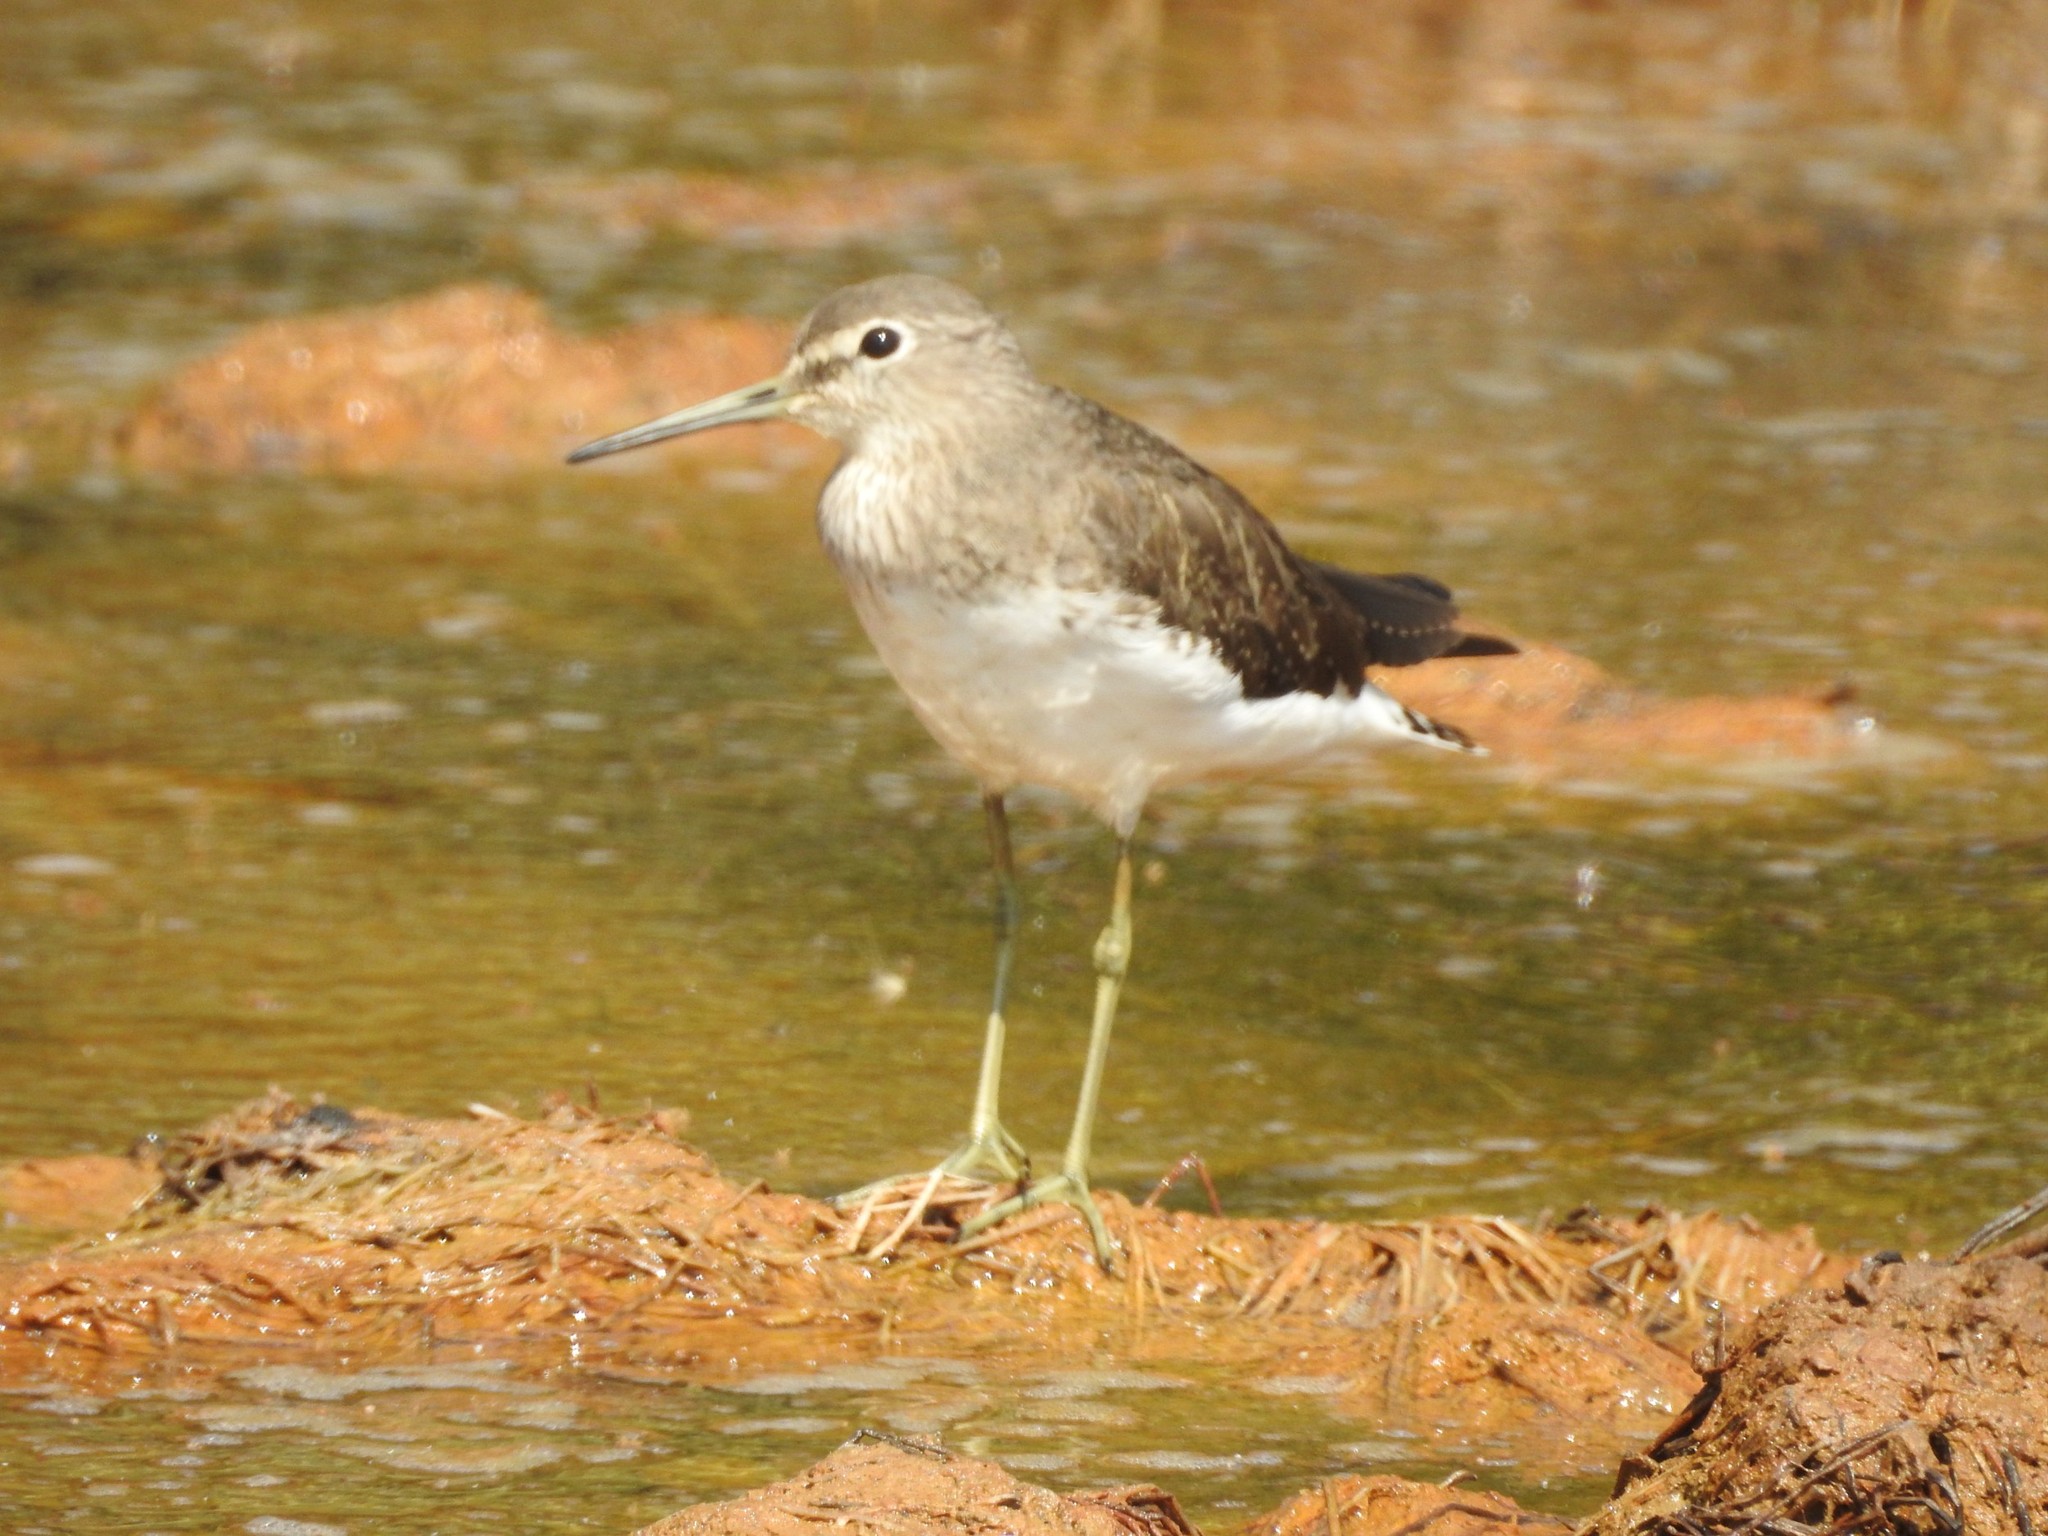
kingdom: Animalia
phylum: Chordata
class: Aves
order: Charadriiformes
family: Scolopacidae
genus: Tringa
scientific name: Tringa ochropus
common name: Green sandpiper
